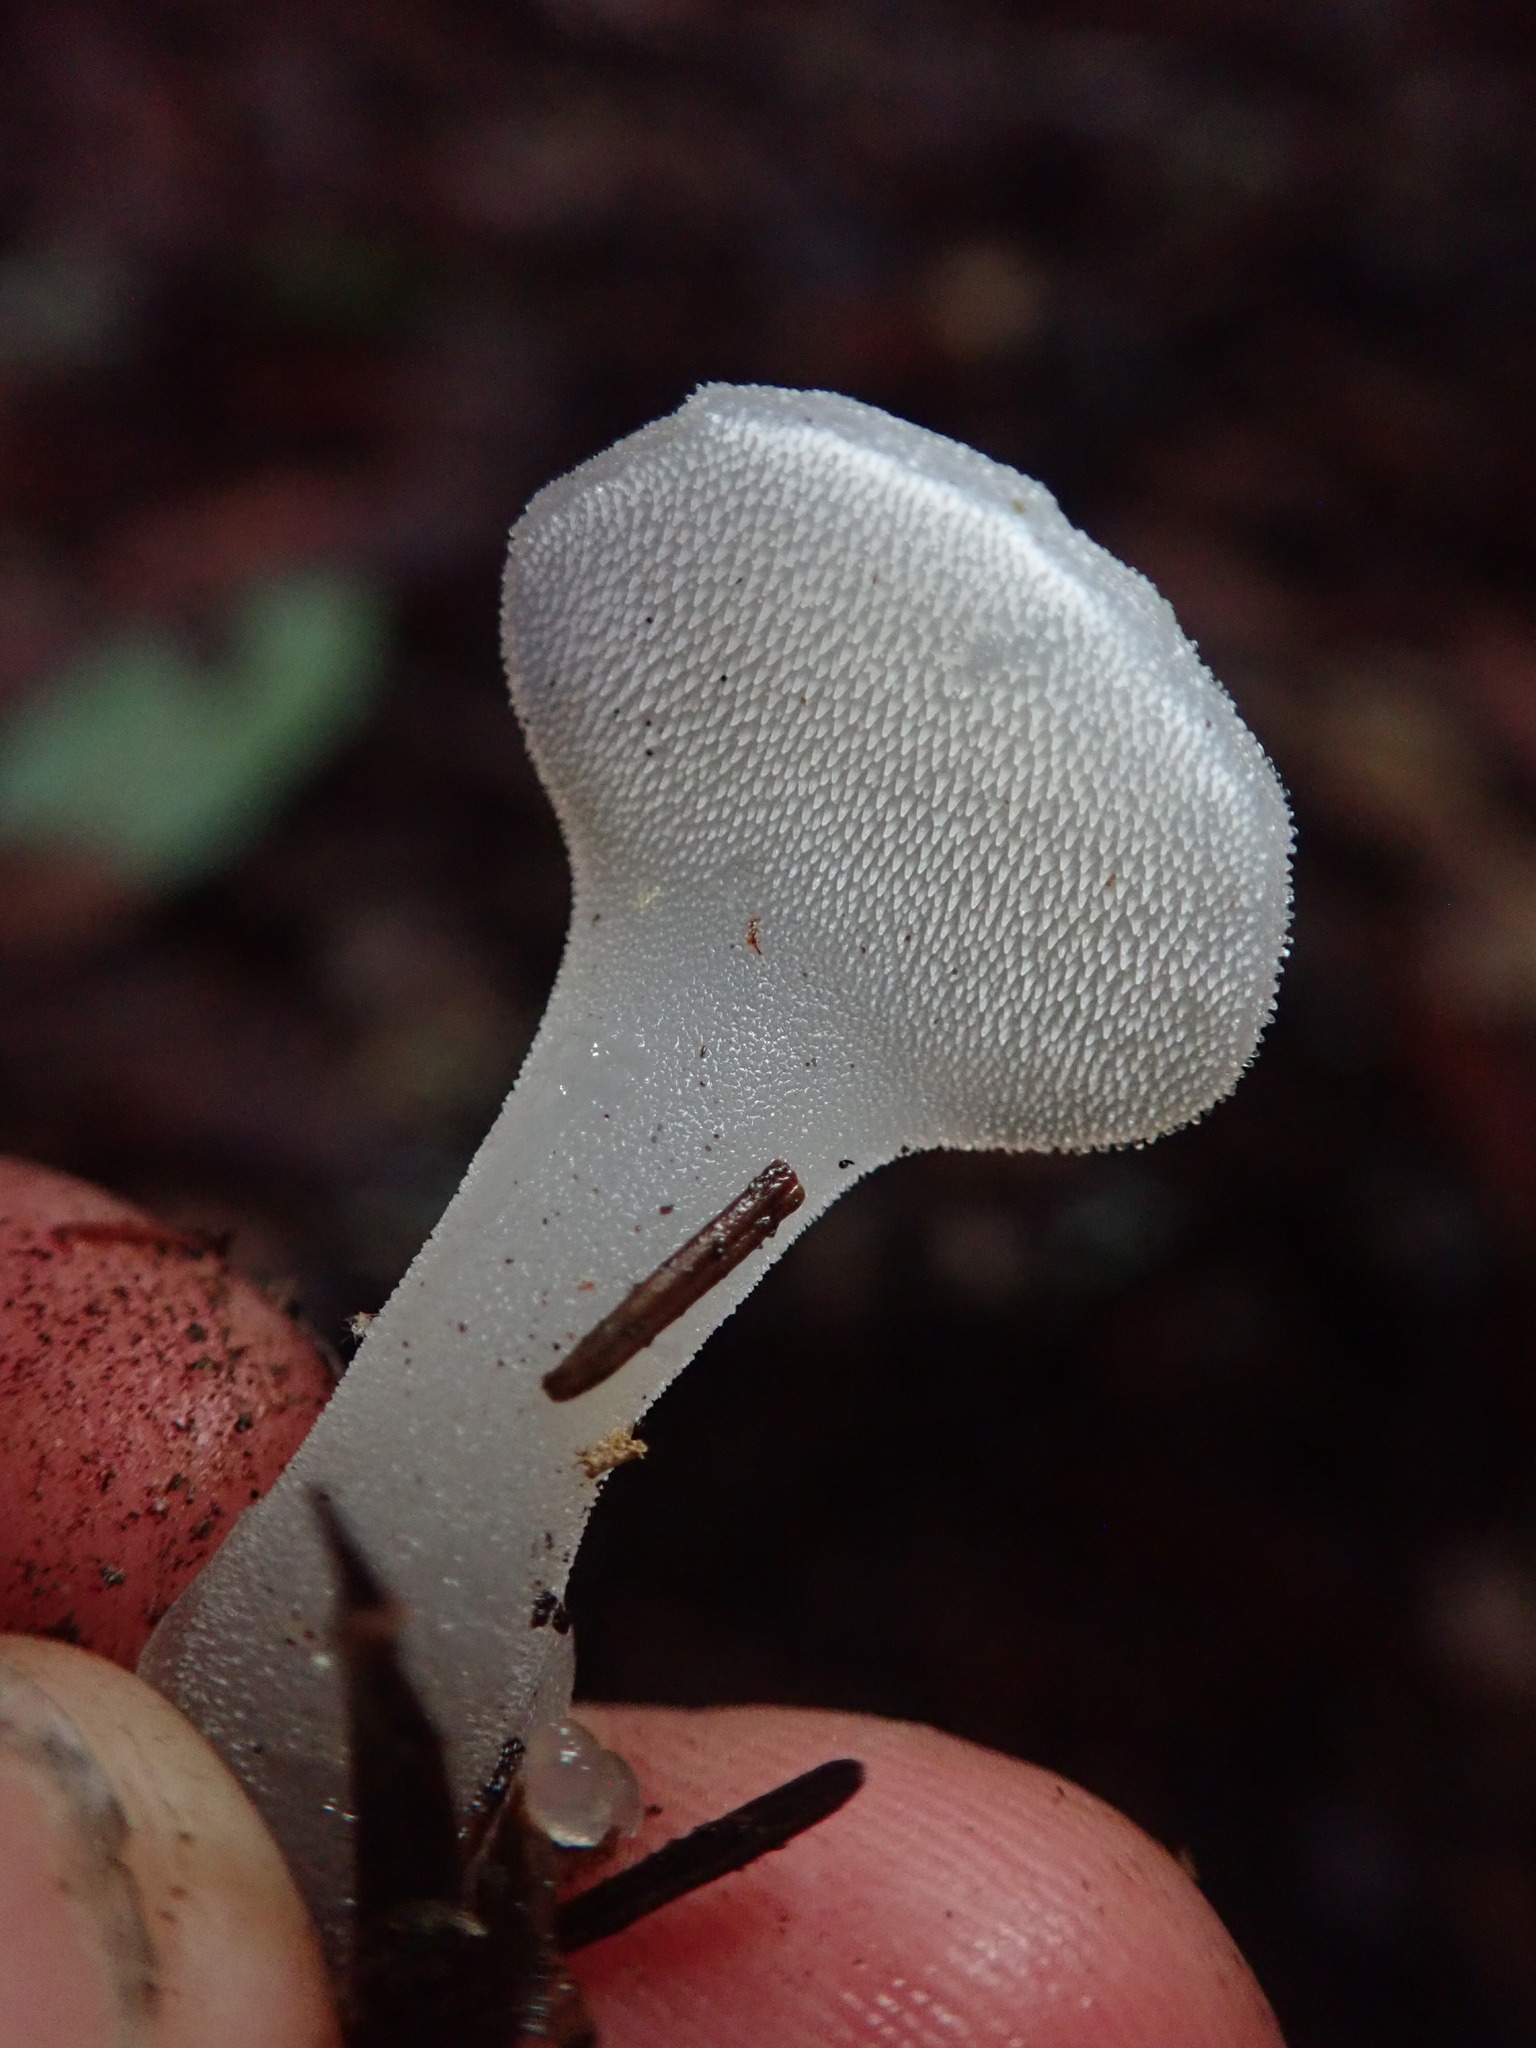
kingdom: Fungi
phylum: Basidiomycota
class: Agaricomycetes
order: Auriculariales
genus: Pseudohydnum
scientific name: Pseudohydnum gelatinosum
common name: Jelly tongue
